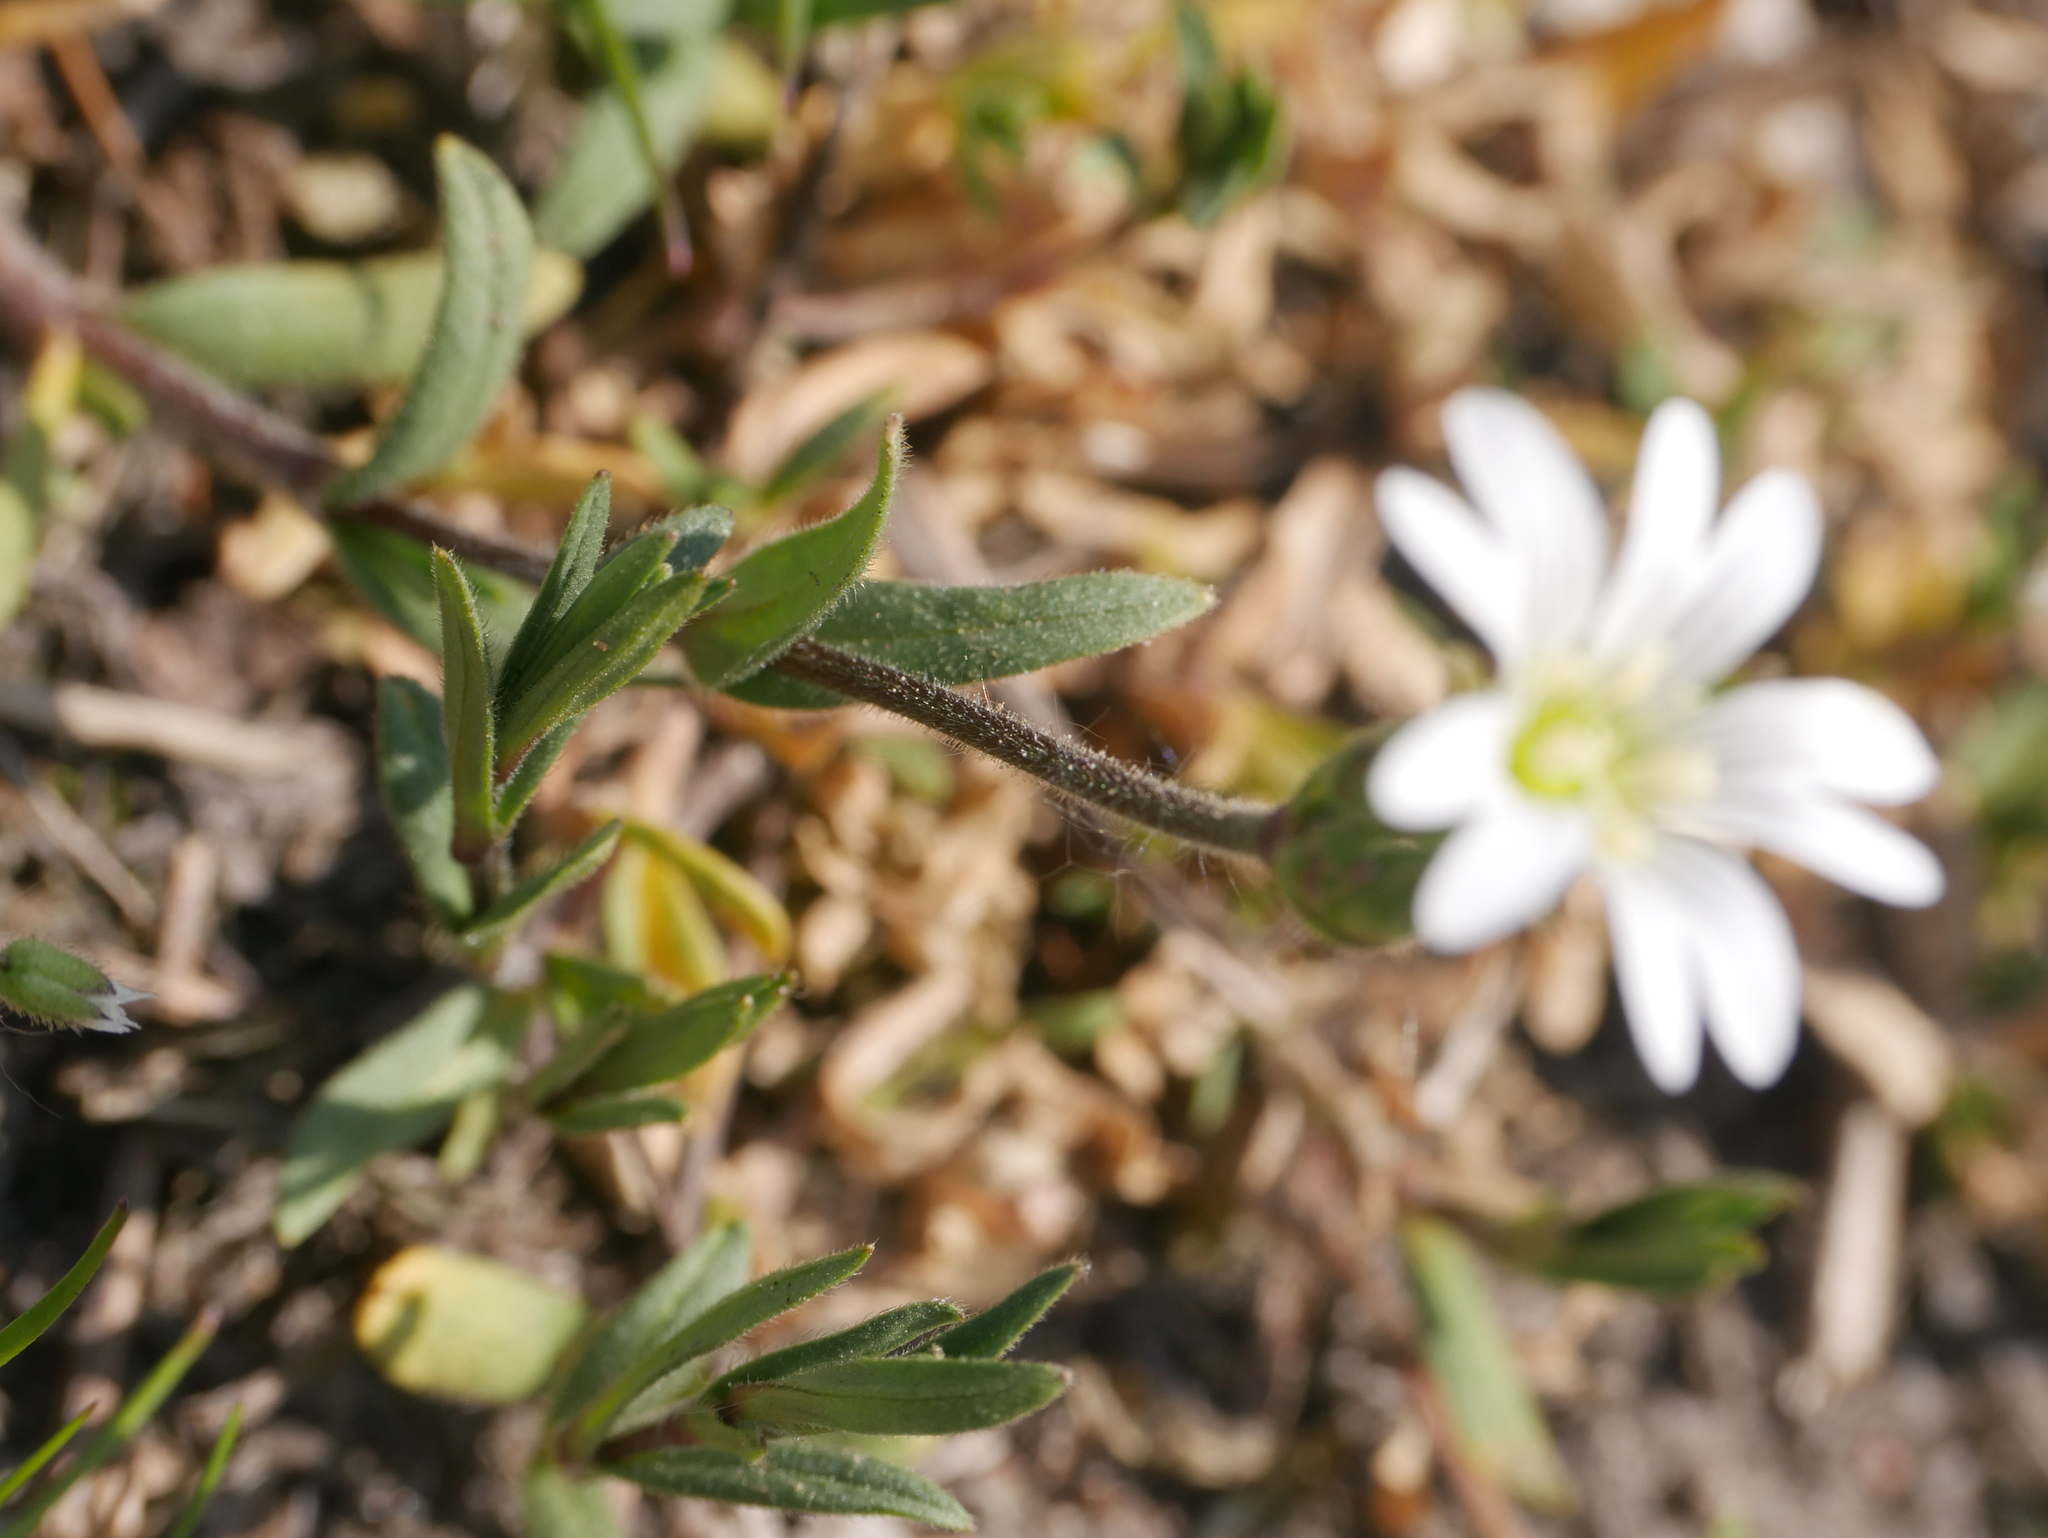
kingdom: Plantae
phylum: Tracheophyta
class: Magnoliopsida
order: Caryophyllales
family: Caryophyllaceae
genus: Cerastium
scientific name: Cerastium arvense
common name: Field mouse-ear
